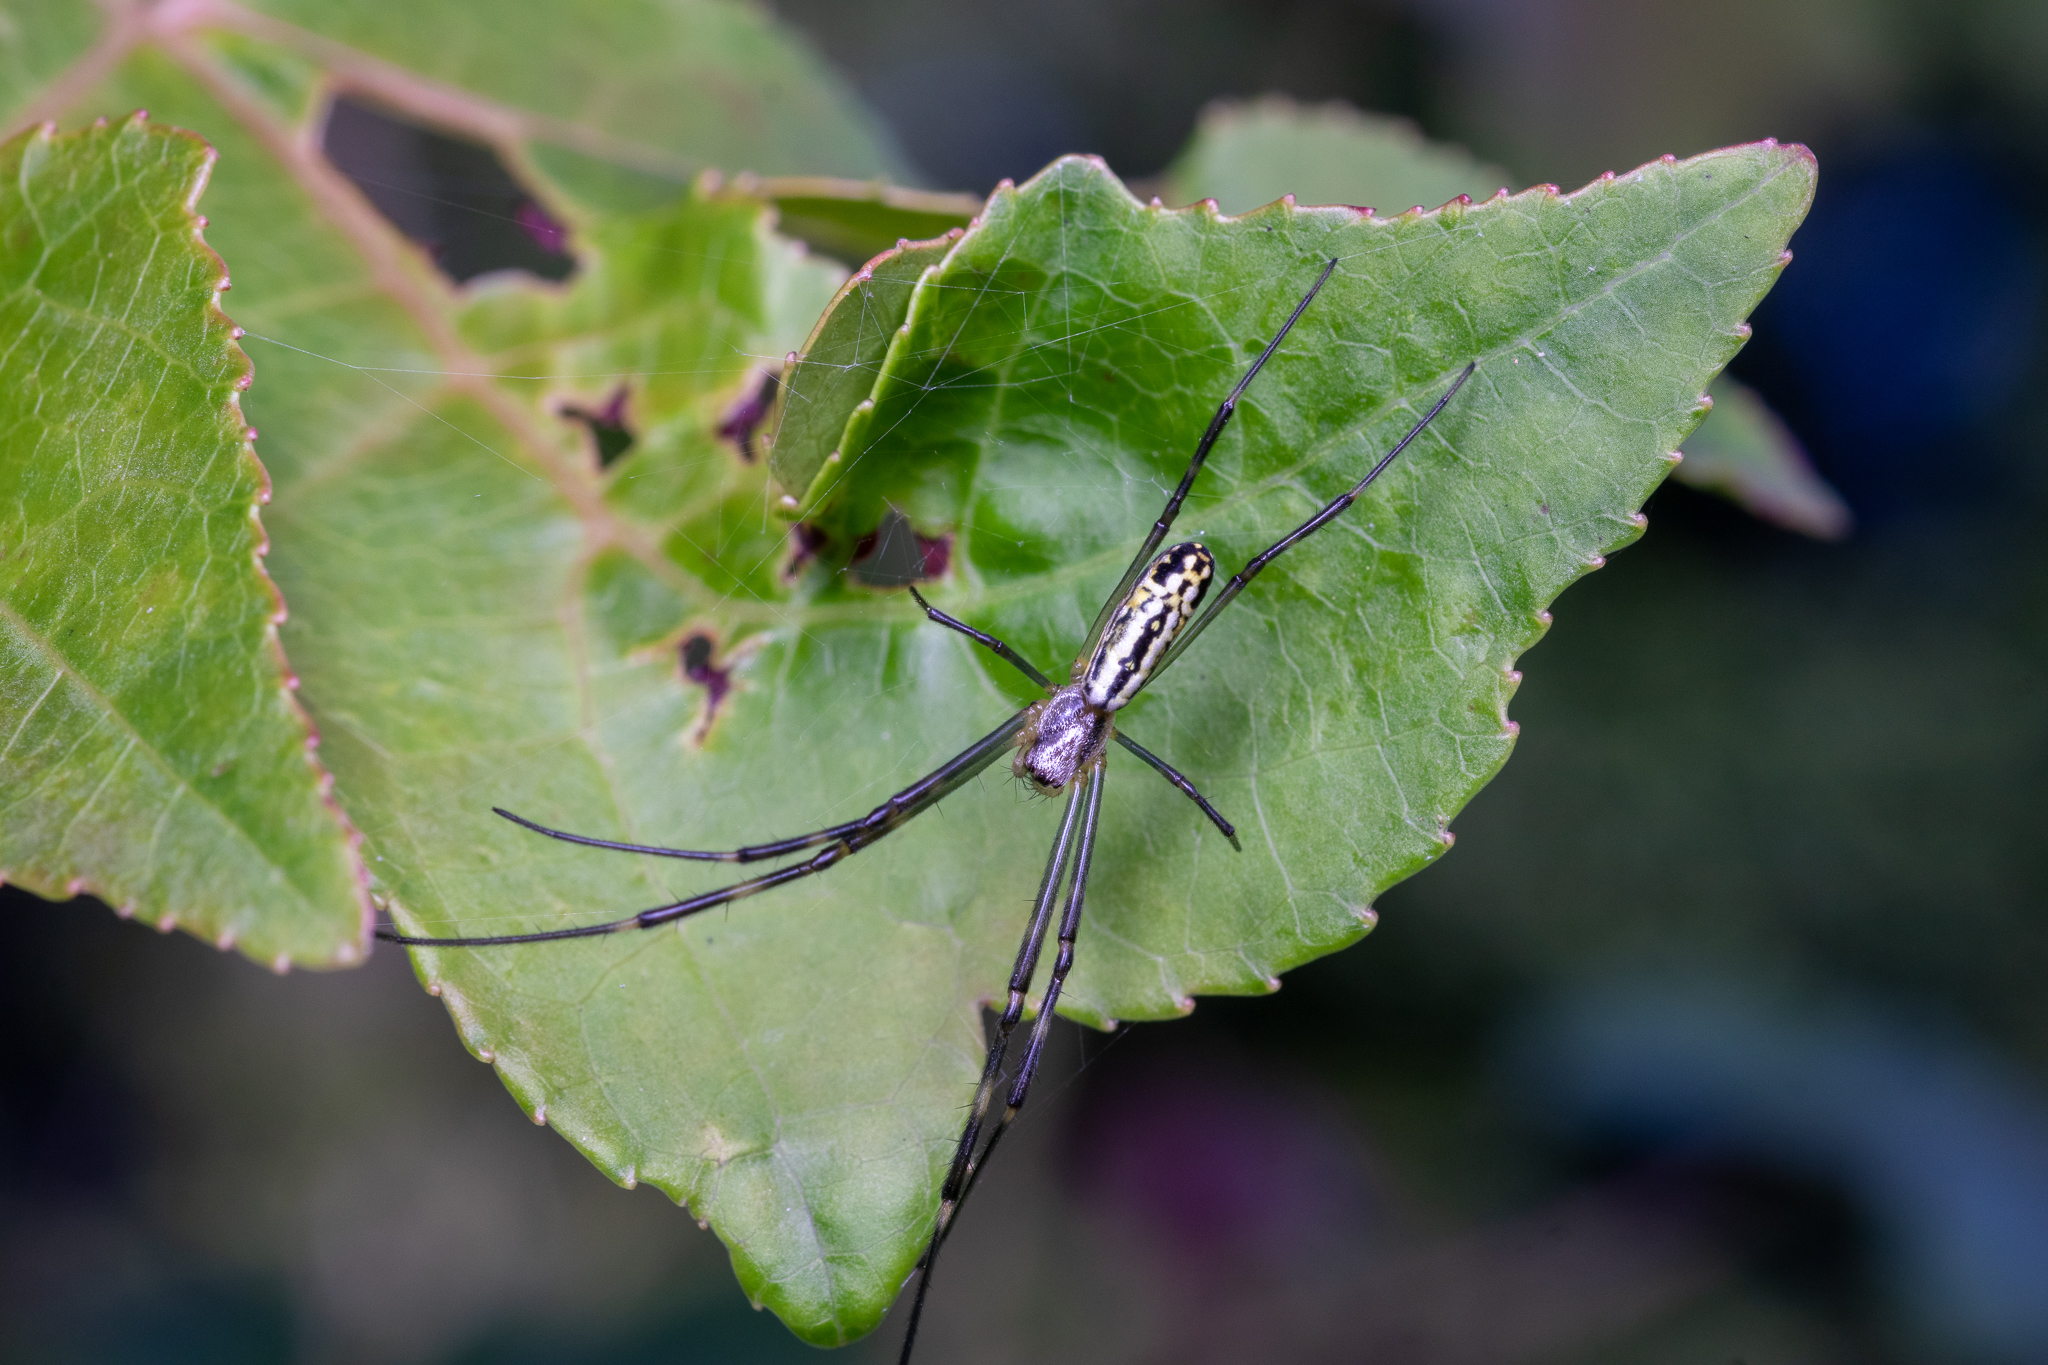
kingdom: Animalia
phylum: Arthropoda
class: Arachnida
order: Araneae
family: Araneidae
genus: Trichonephila
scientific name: Trichonephila clavata
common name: Jorō spider
